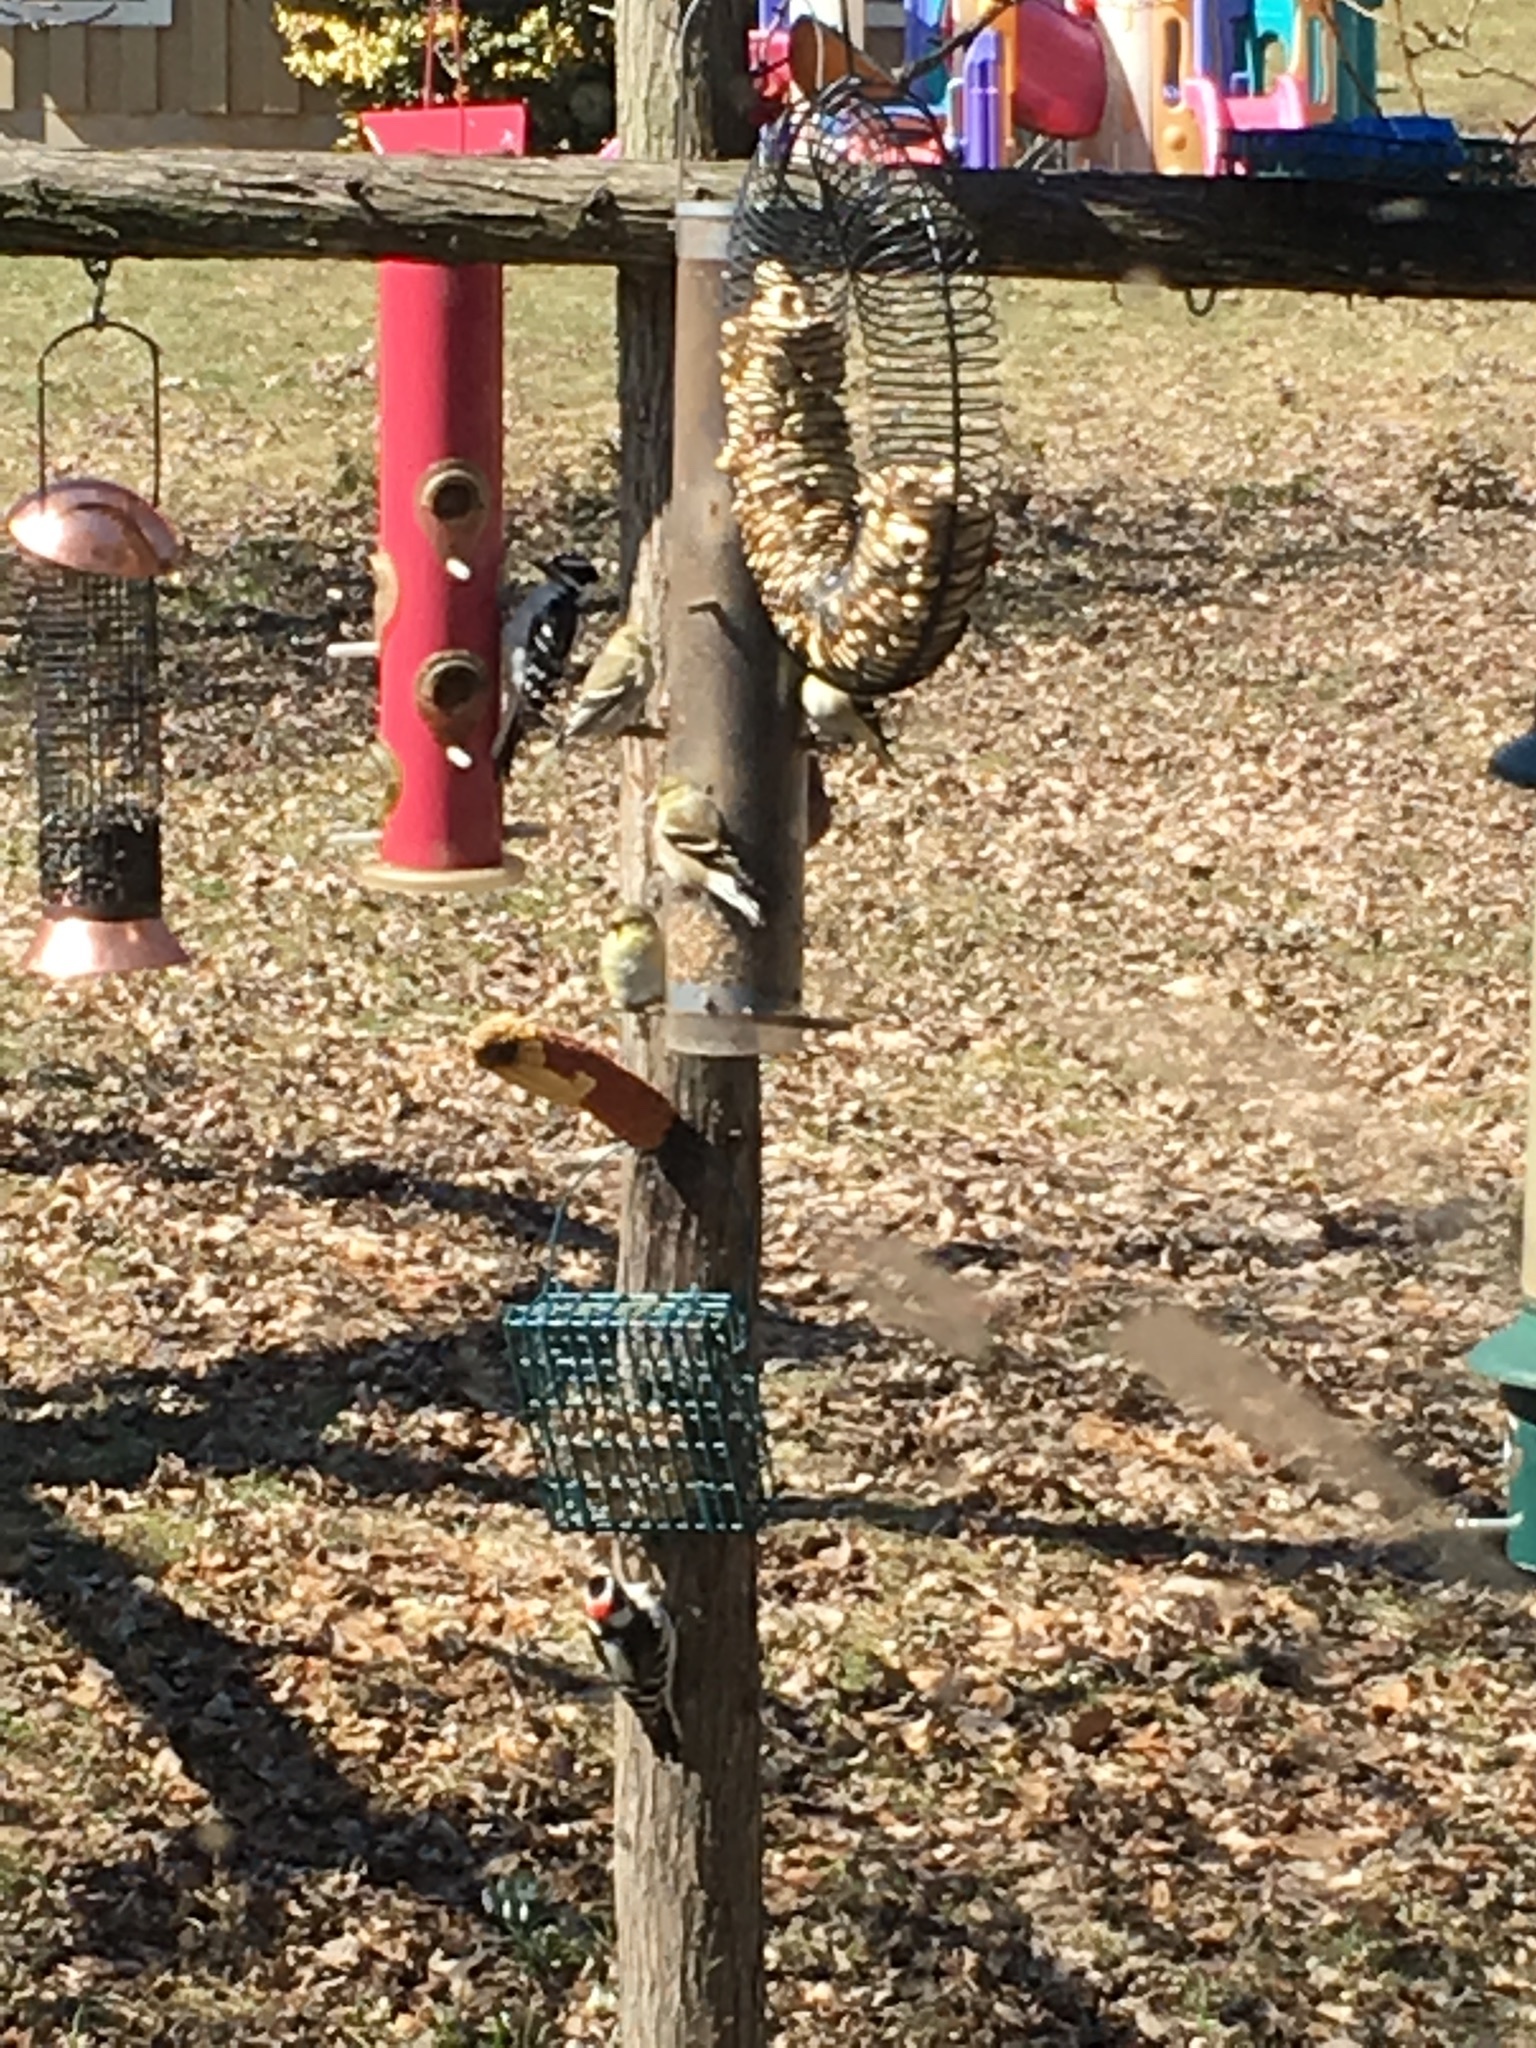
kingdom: Animalia
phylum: Chordata
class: Aves
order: Piciformes
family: Picidae
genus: Dryobates
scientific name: Dryobates pubescens
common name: Downy woodpecker
